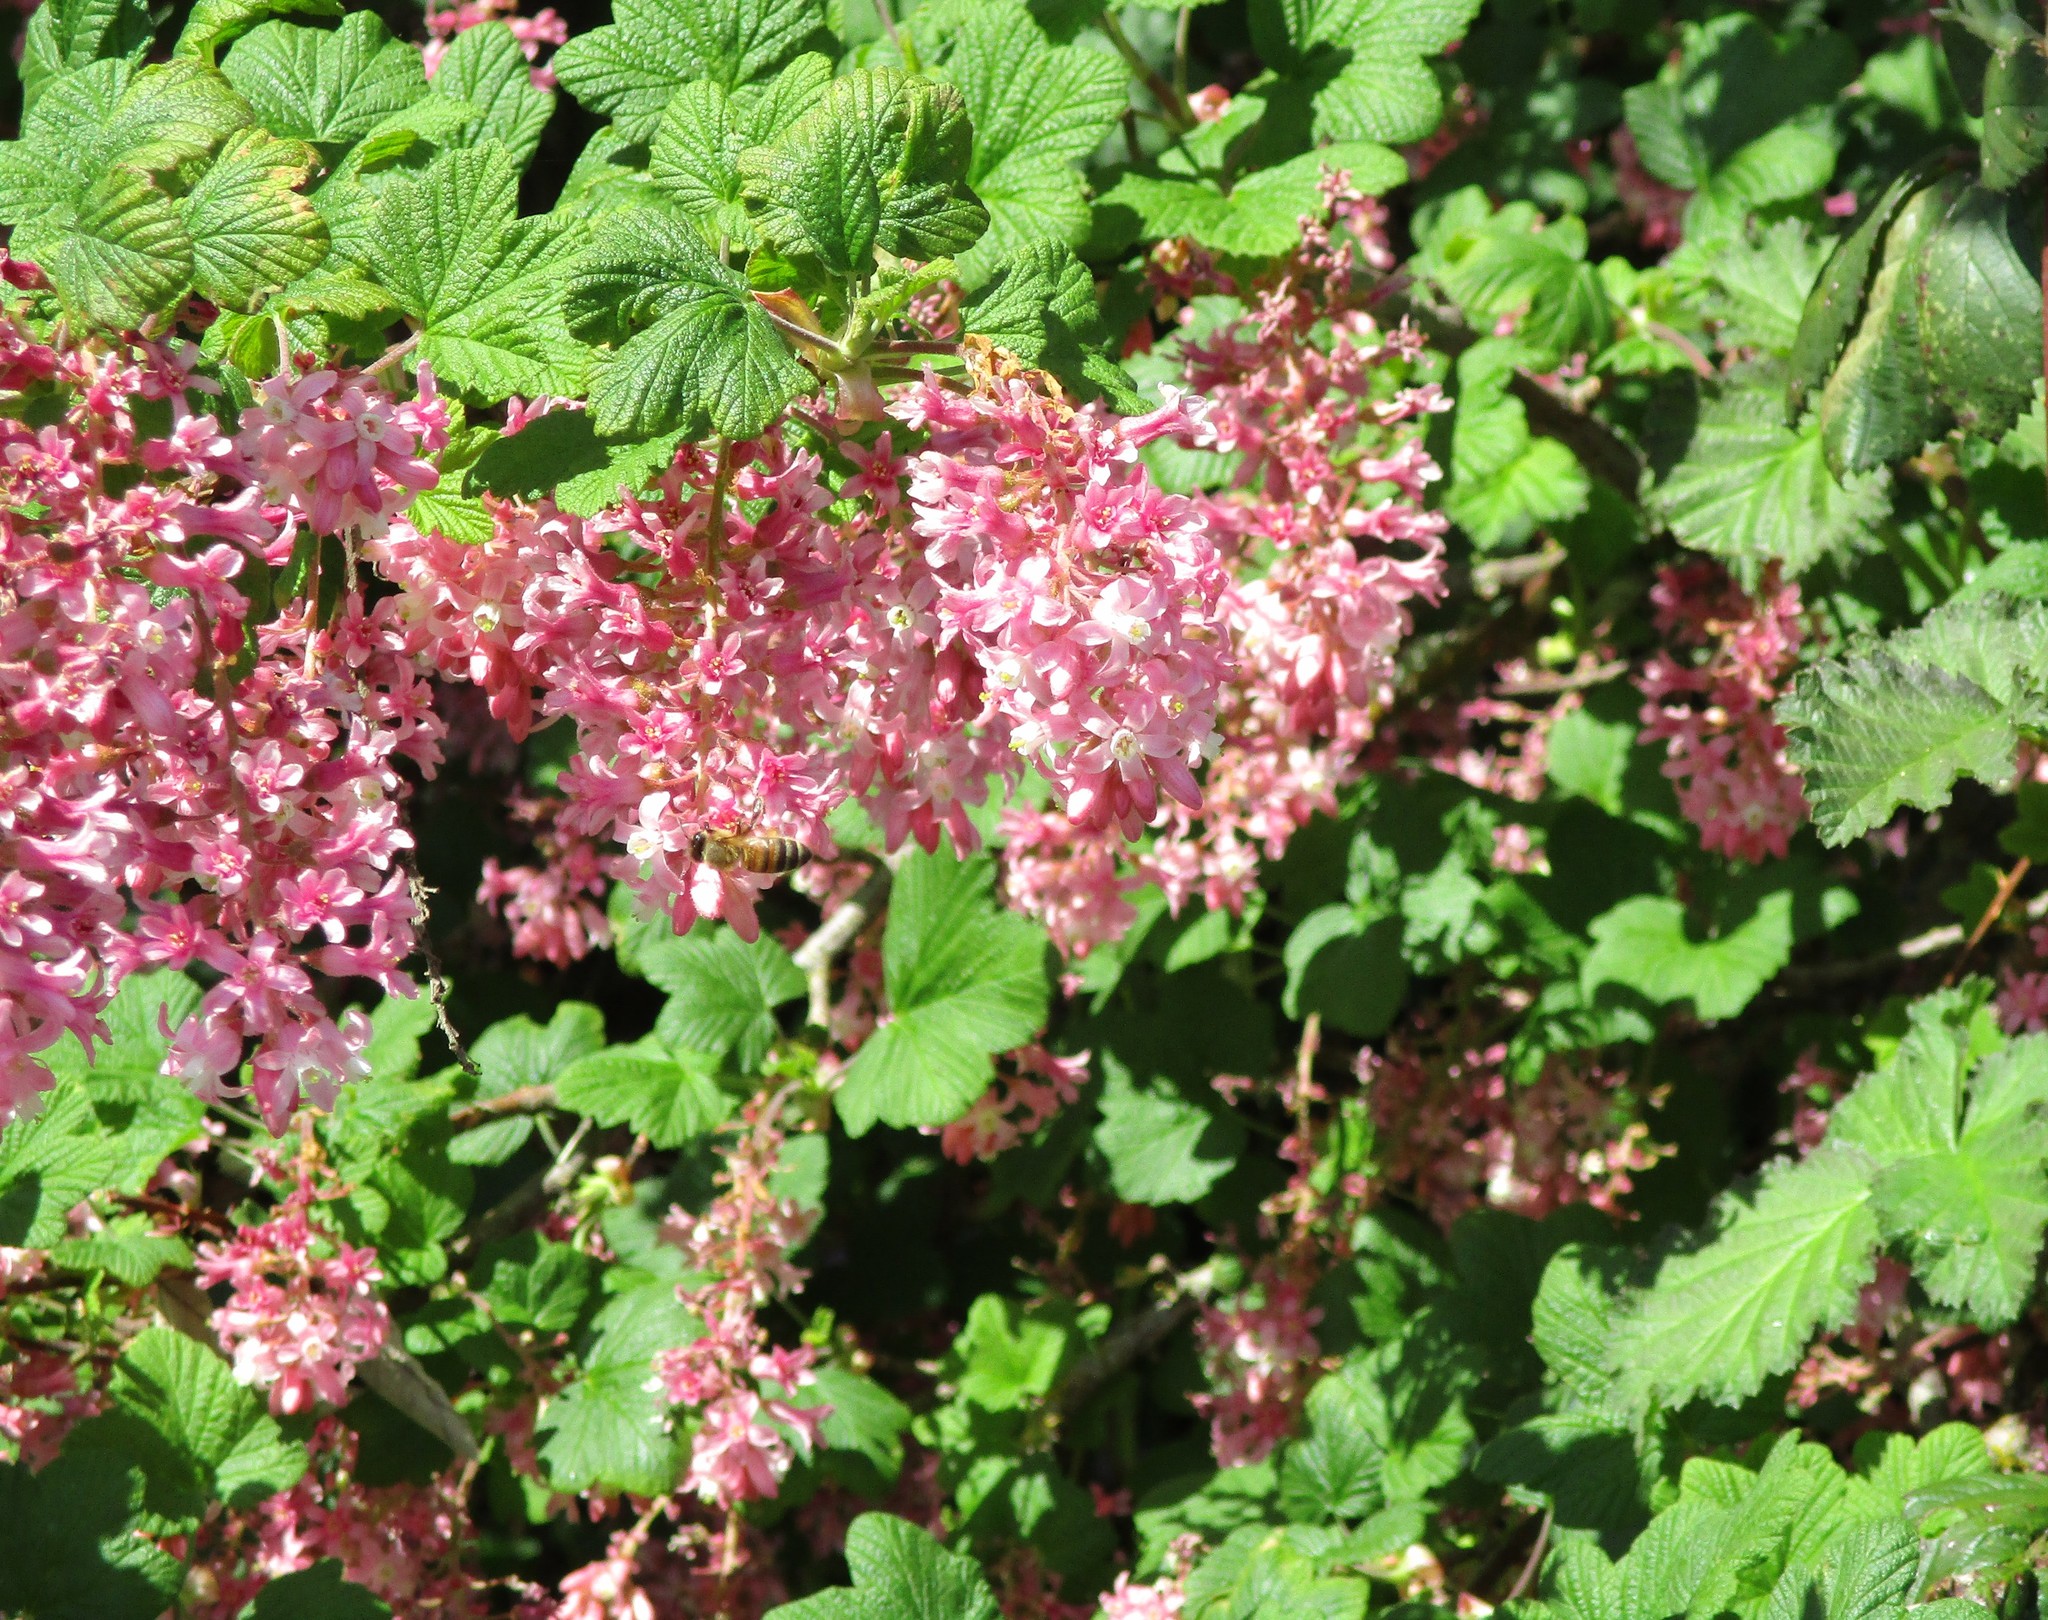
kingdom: Animalia
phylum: Arthropoda
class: Insecta
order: Hymenoptera
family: Apidae
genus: Apis
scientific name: Apis mellifera
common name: Honey bee
